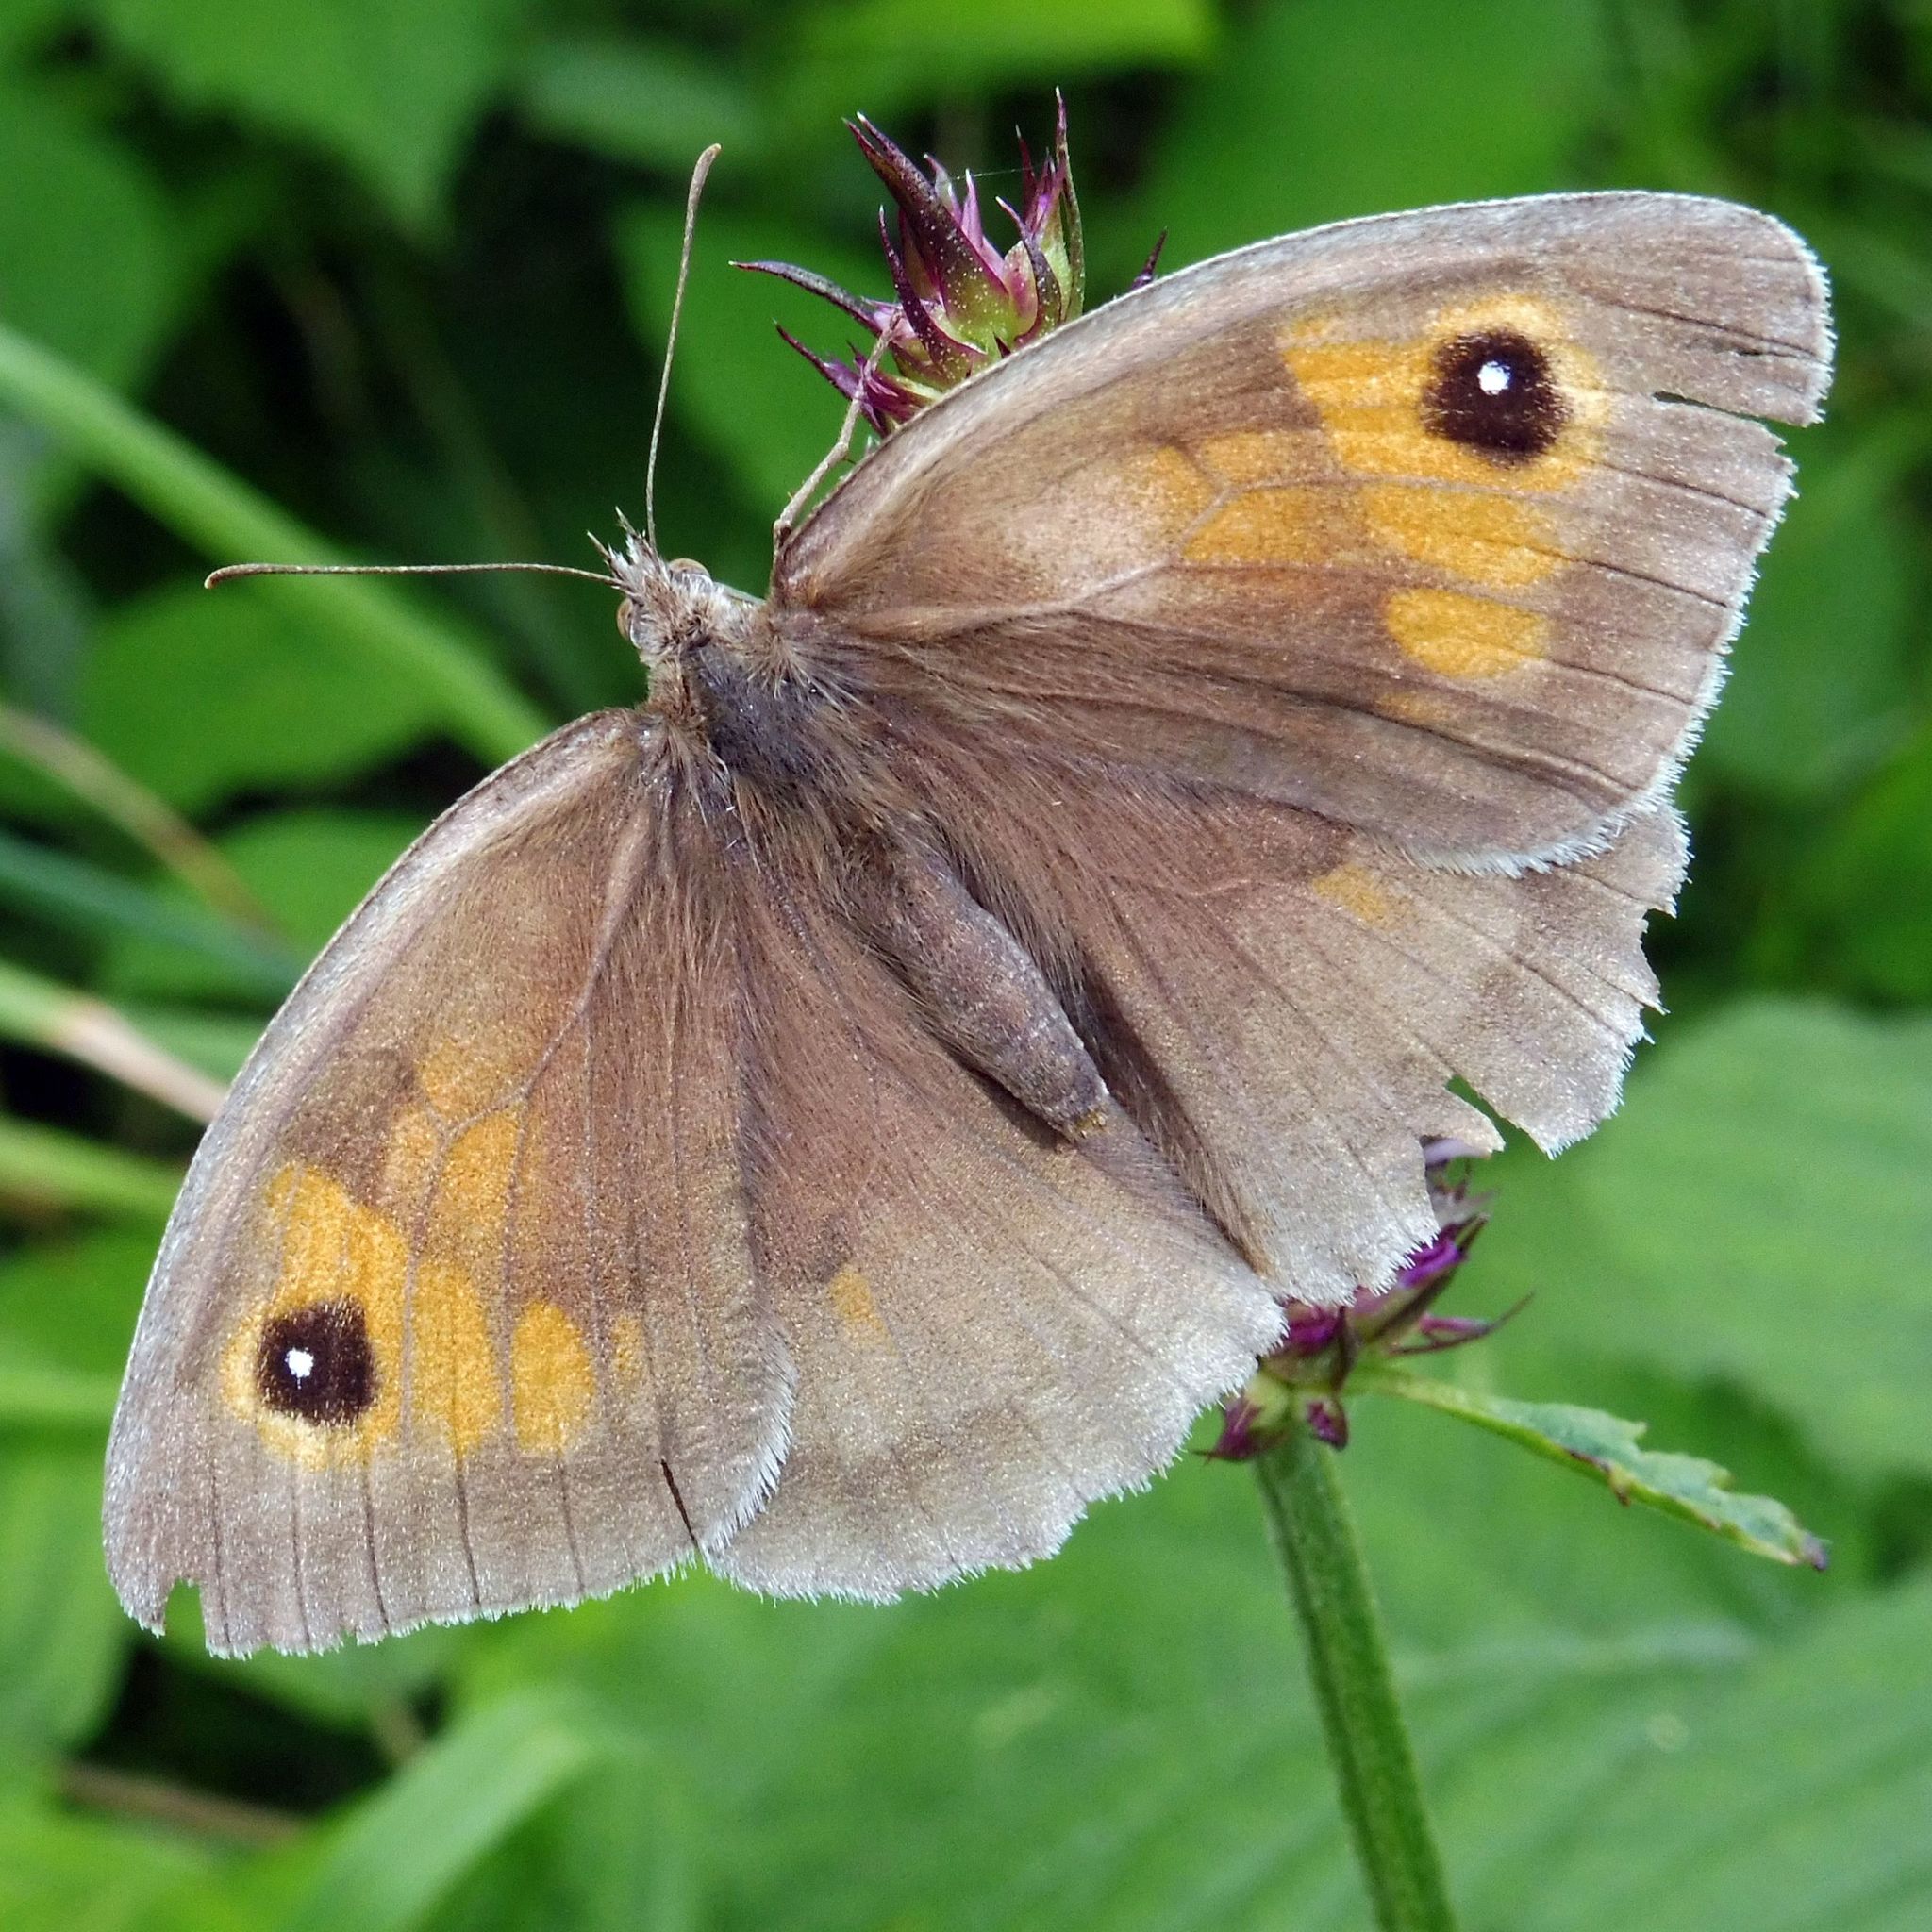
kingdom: Animalia
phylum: Arthropoda
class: Insecta
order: Lepidoptera
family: Nymphalidae
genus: Maniola
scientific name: Maniola jurtina
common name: Meadow brown
